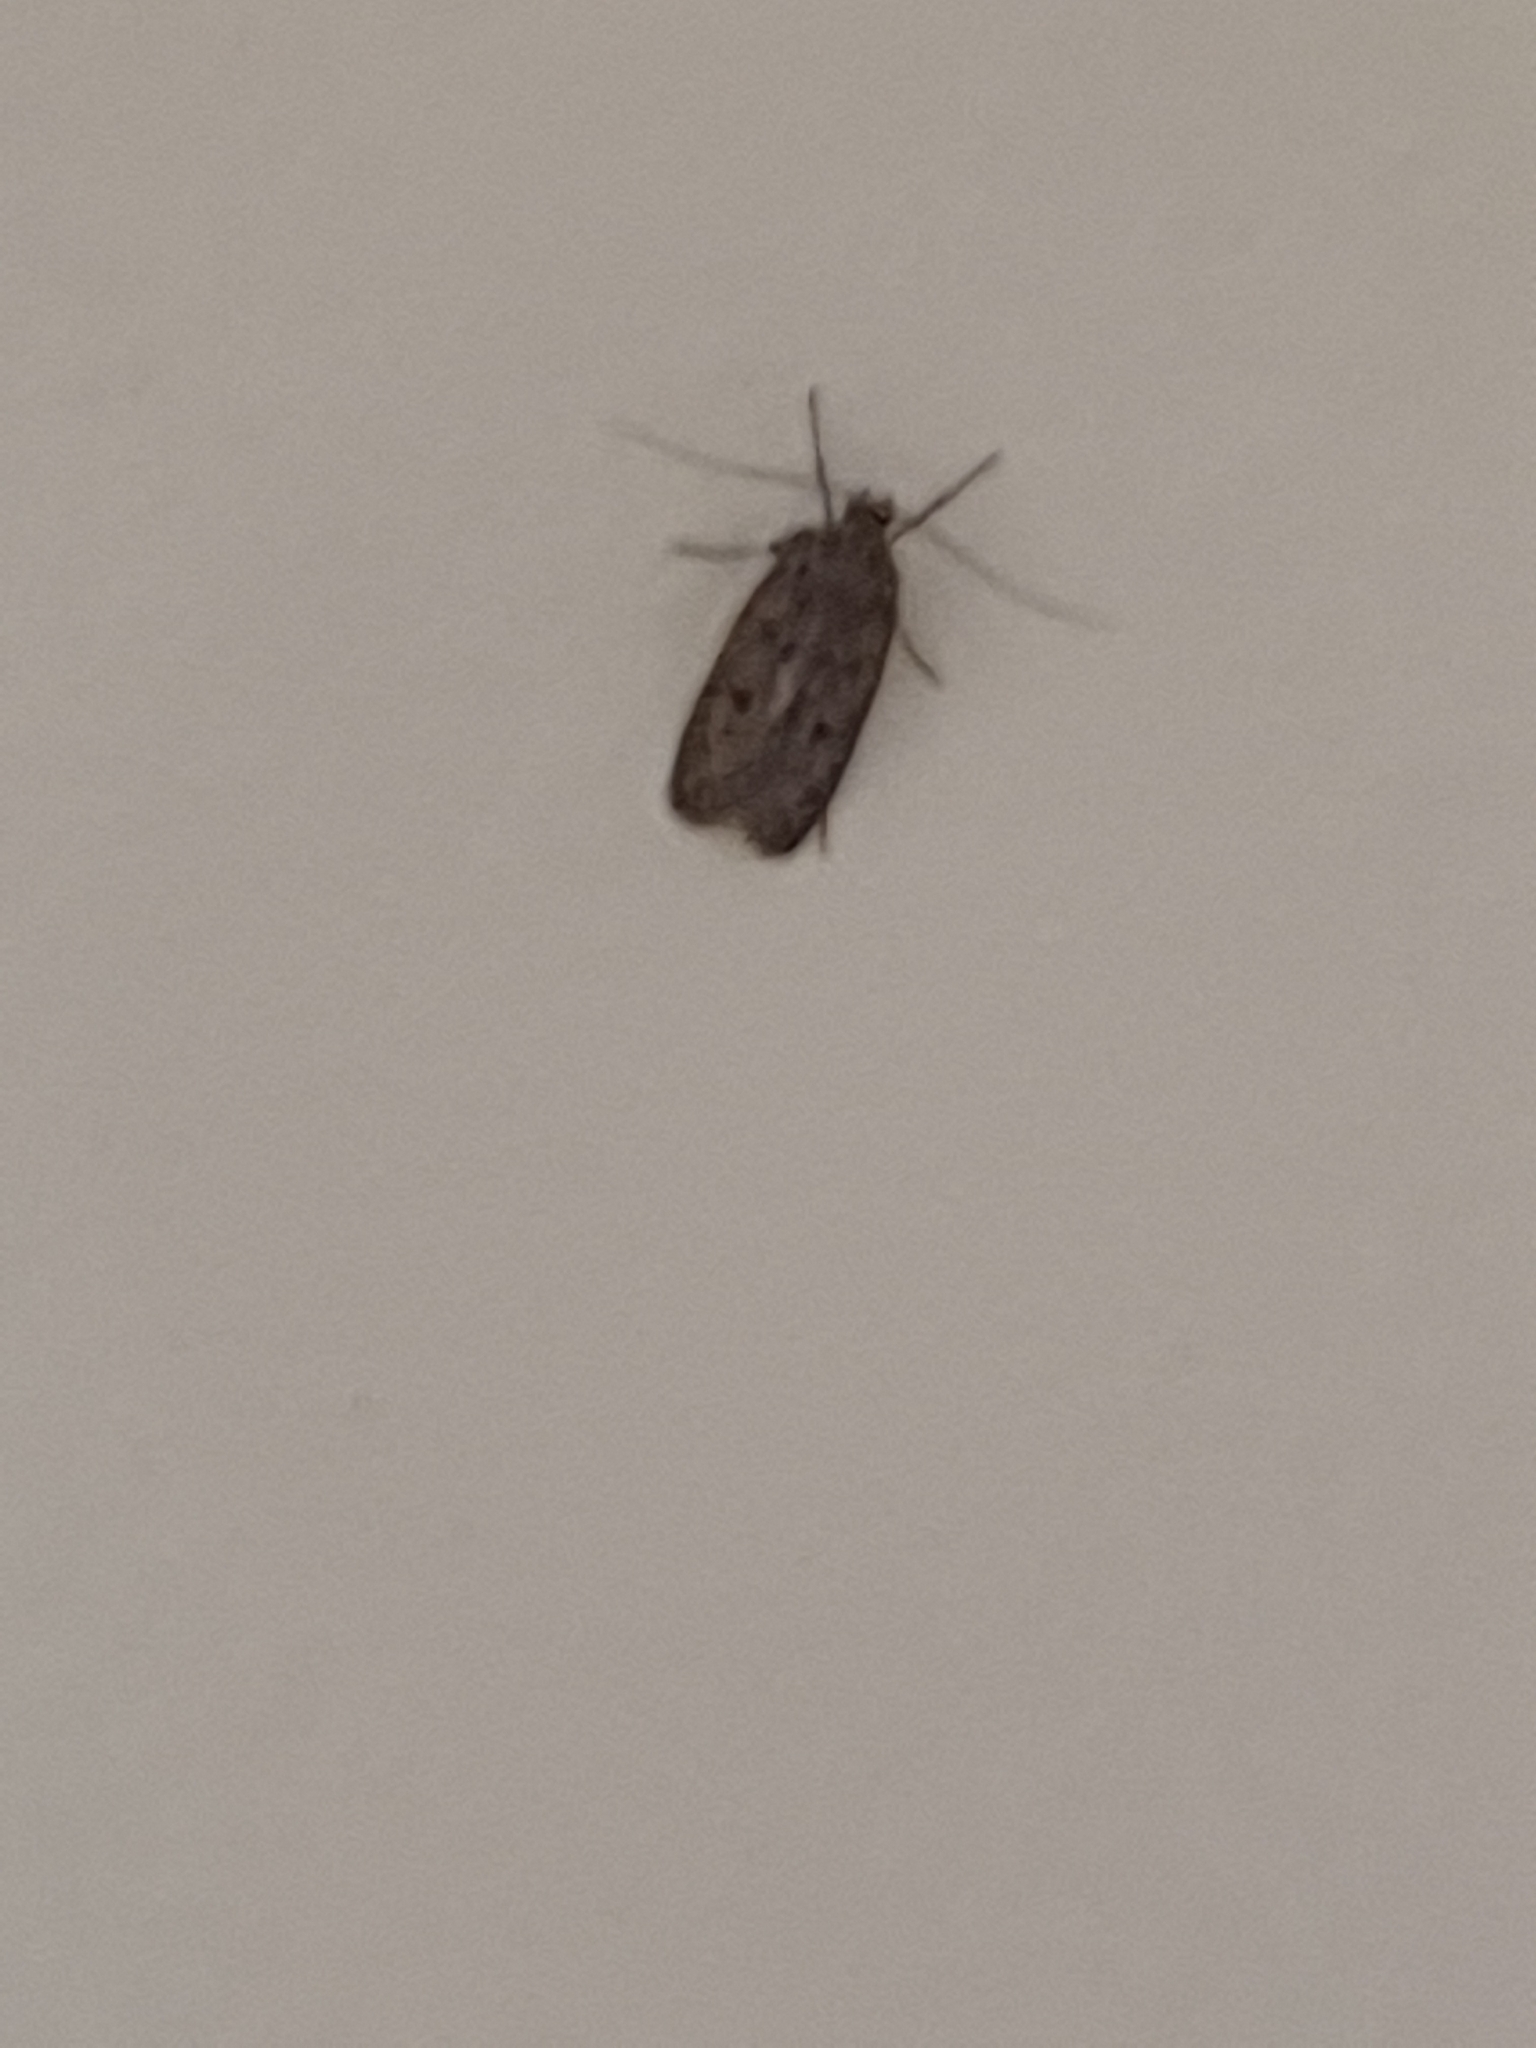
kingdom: Animalia
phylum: Arthropoda
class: Insecta
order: Lepidoptera
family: Oecophoridae
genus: Hofmannophila
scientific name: Hofmannophila pseudospretella
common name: Brown house moth
